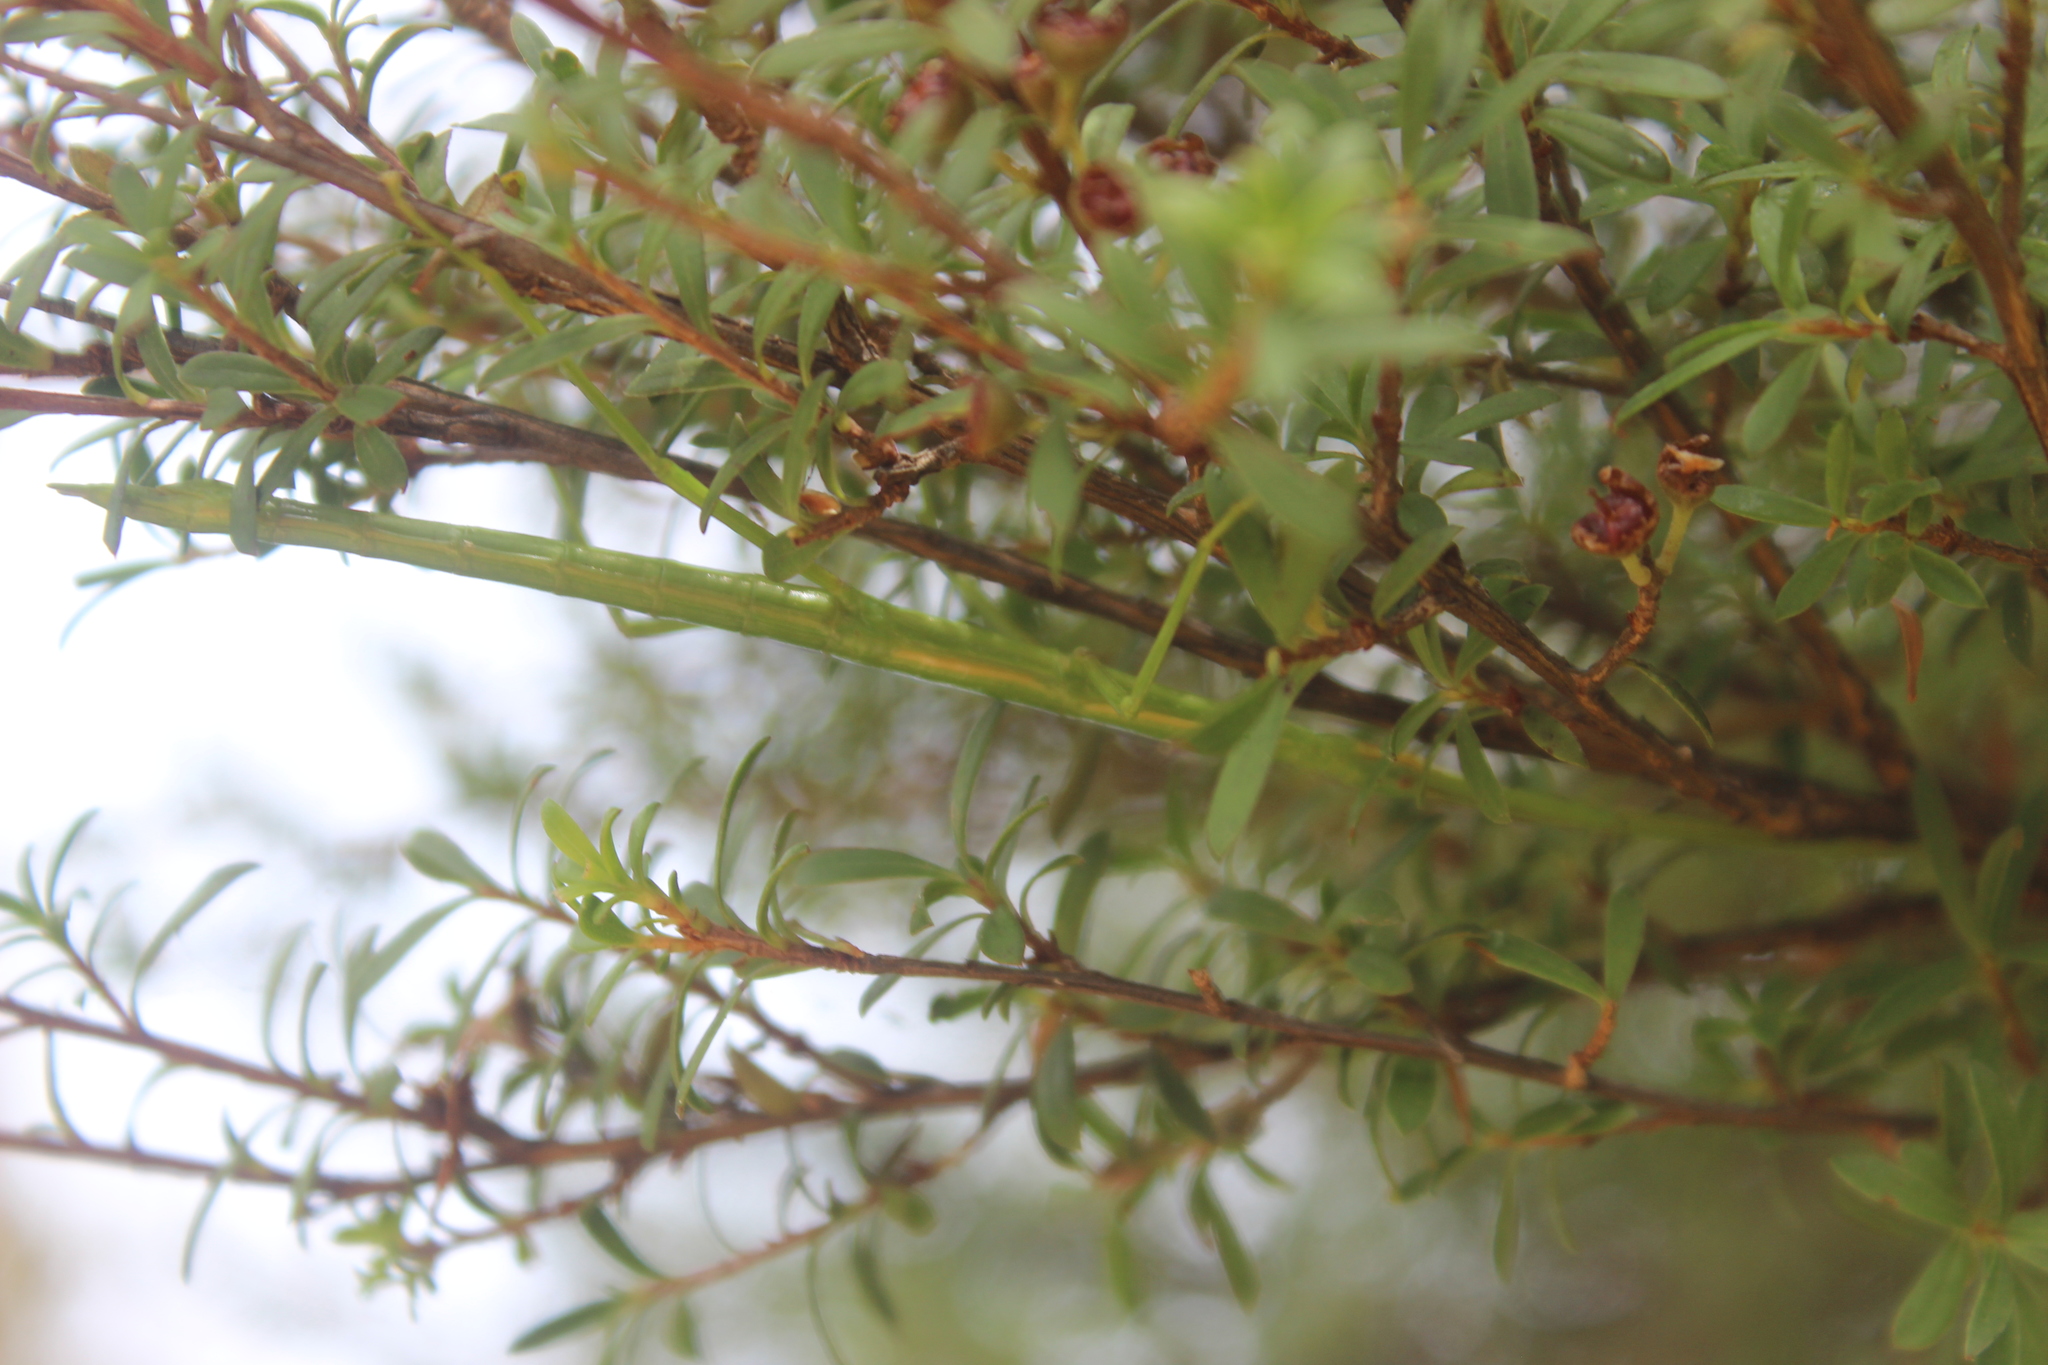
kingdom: Animalia
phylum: Arthropoda
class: Insecta
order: Phasmida
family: Phasmatidae
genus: Clitarchus
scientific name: Clitarchus hookeri
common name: Smooth stick insect
